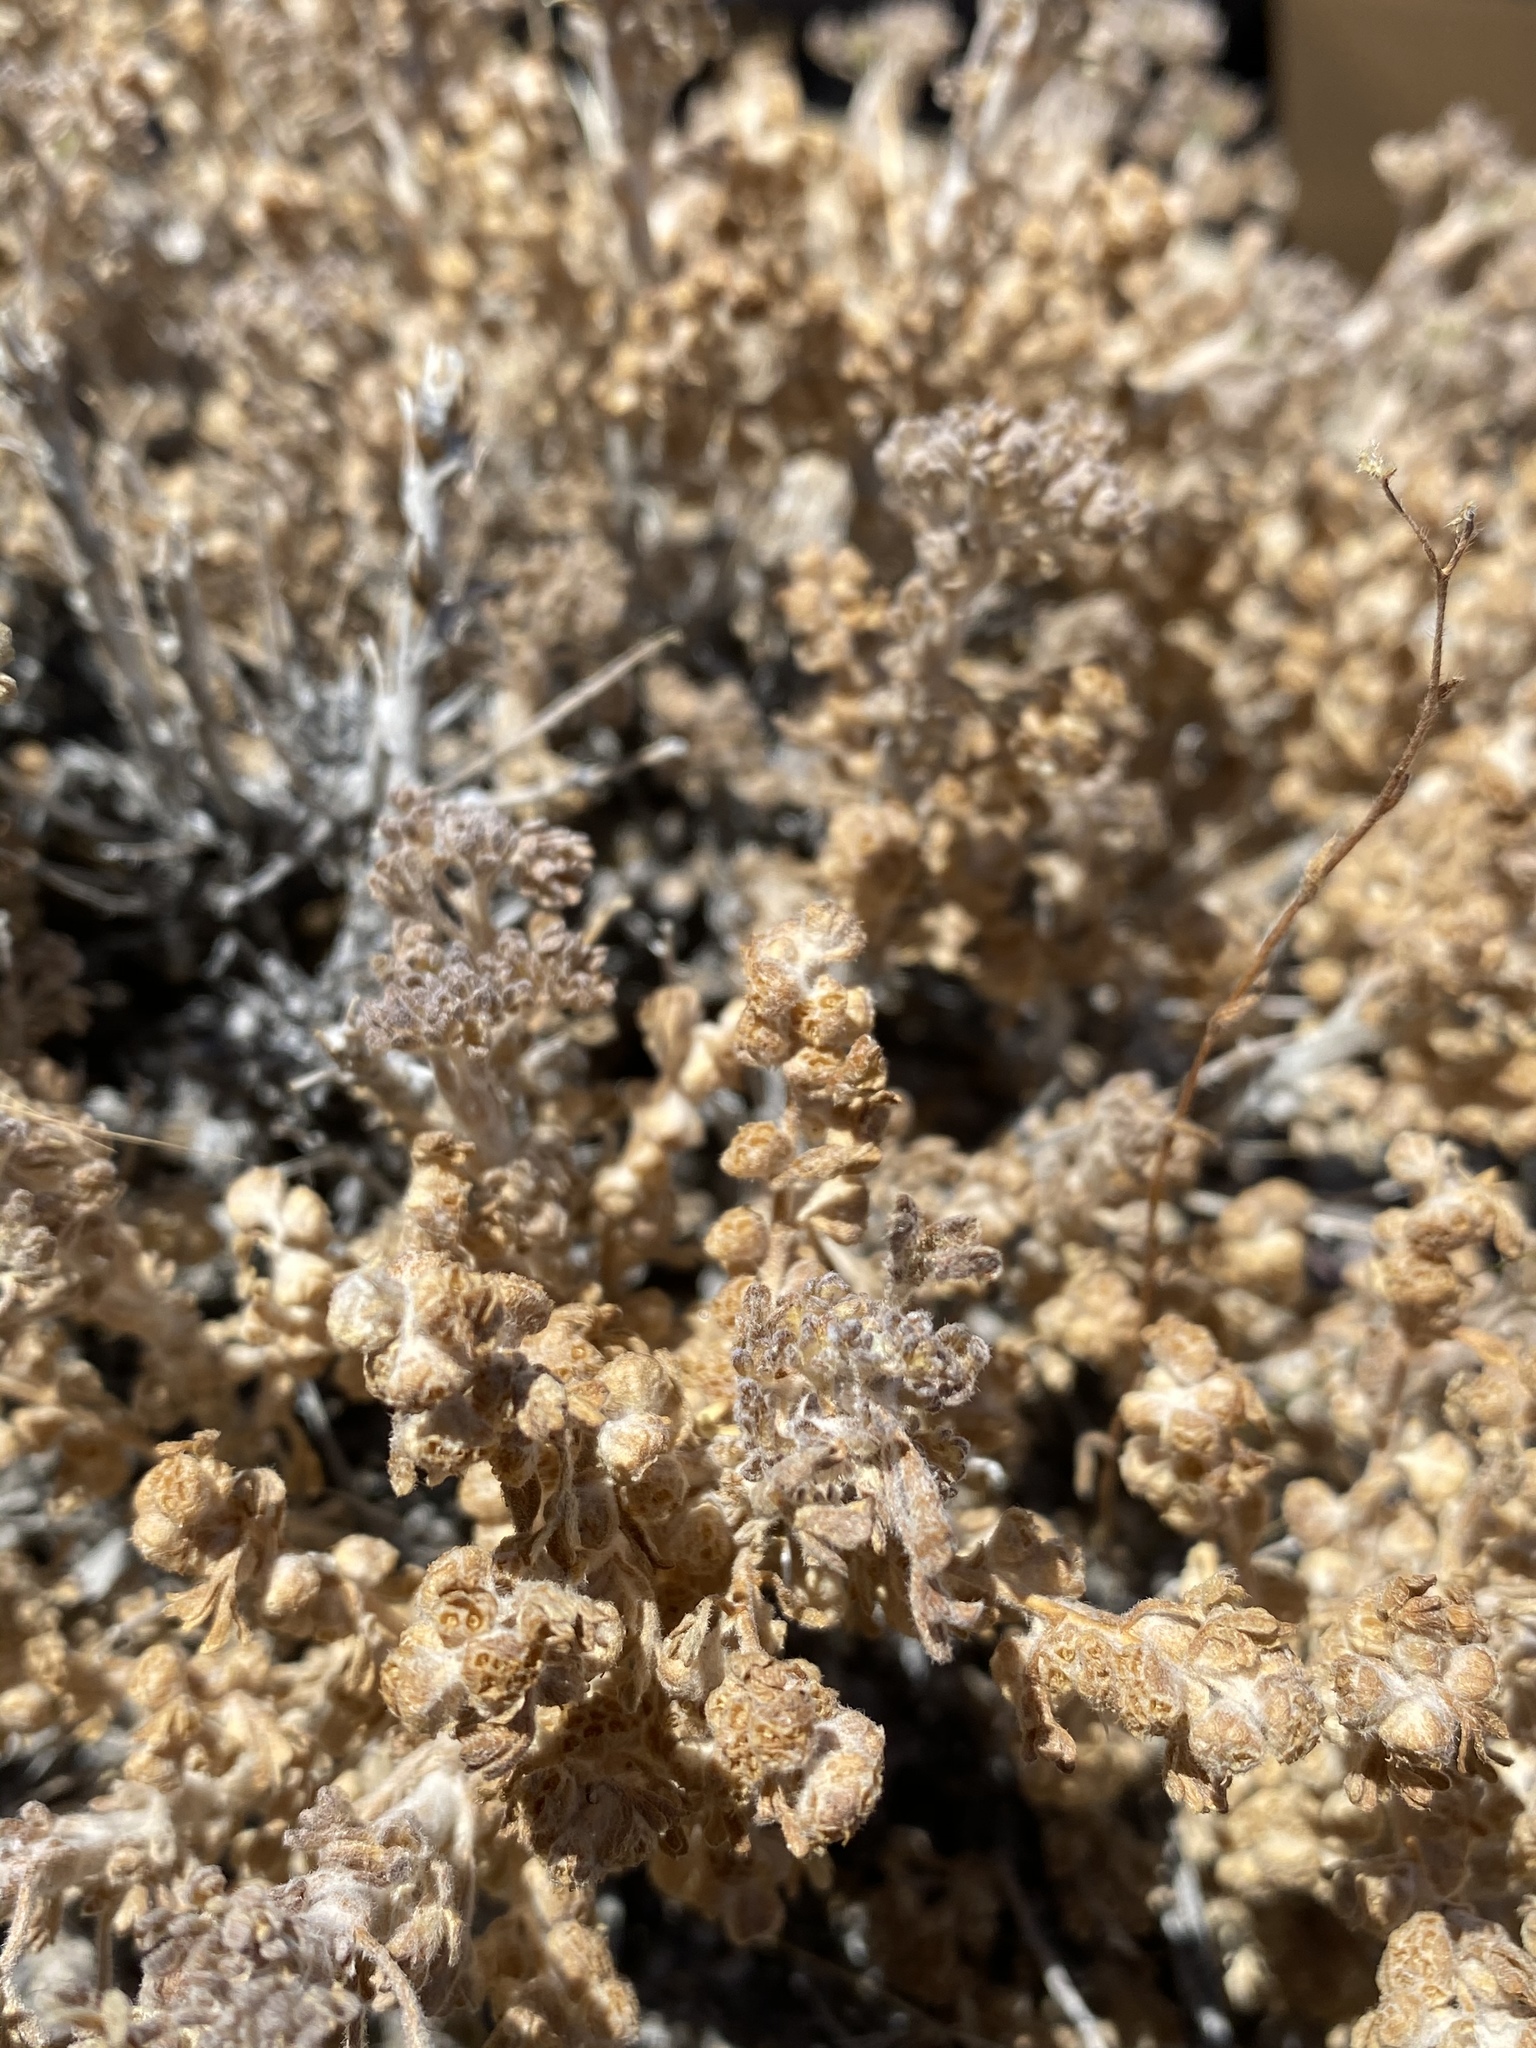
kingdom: Plantae
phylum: Tracheophyta
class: Magnoliopsida
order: Asterales
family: Asteraceae
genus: Artemisia
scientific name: Artemisia spinescens
